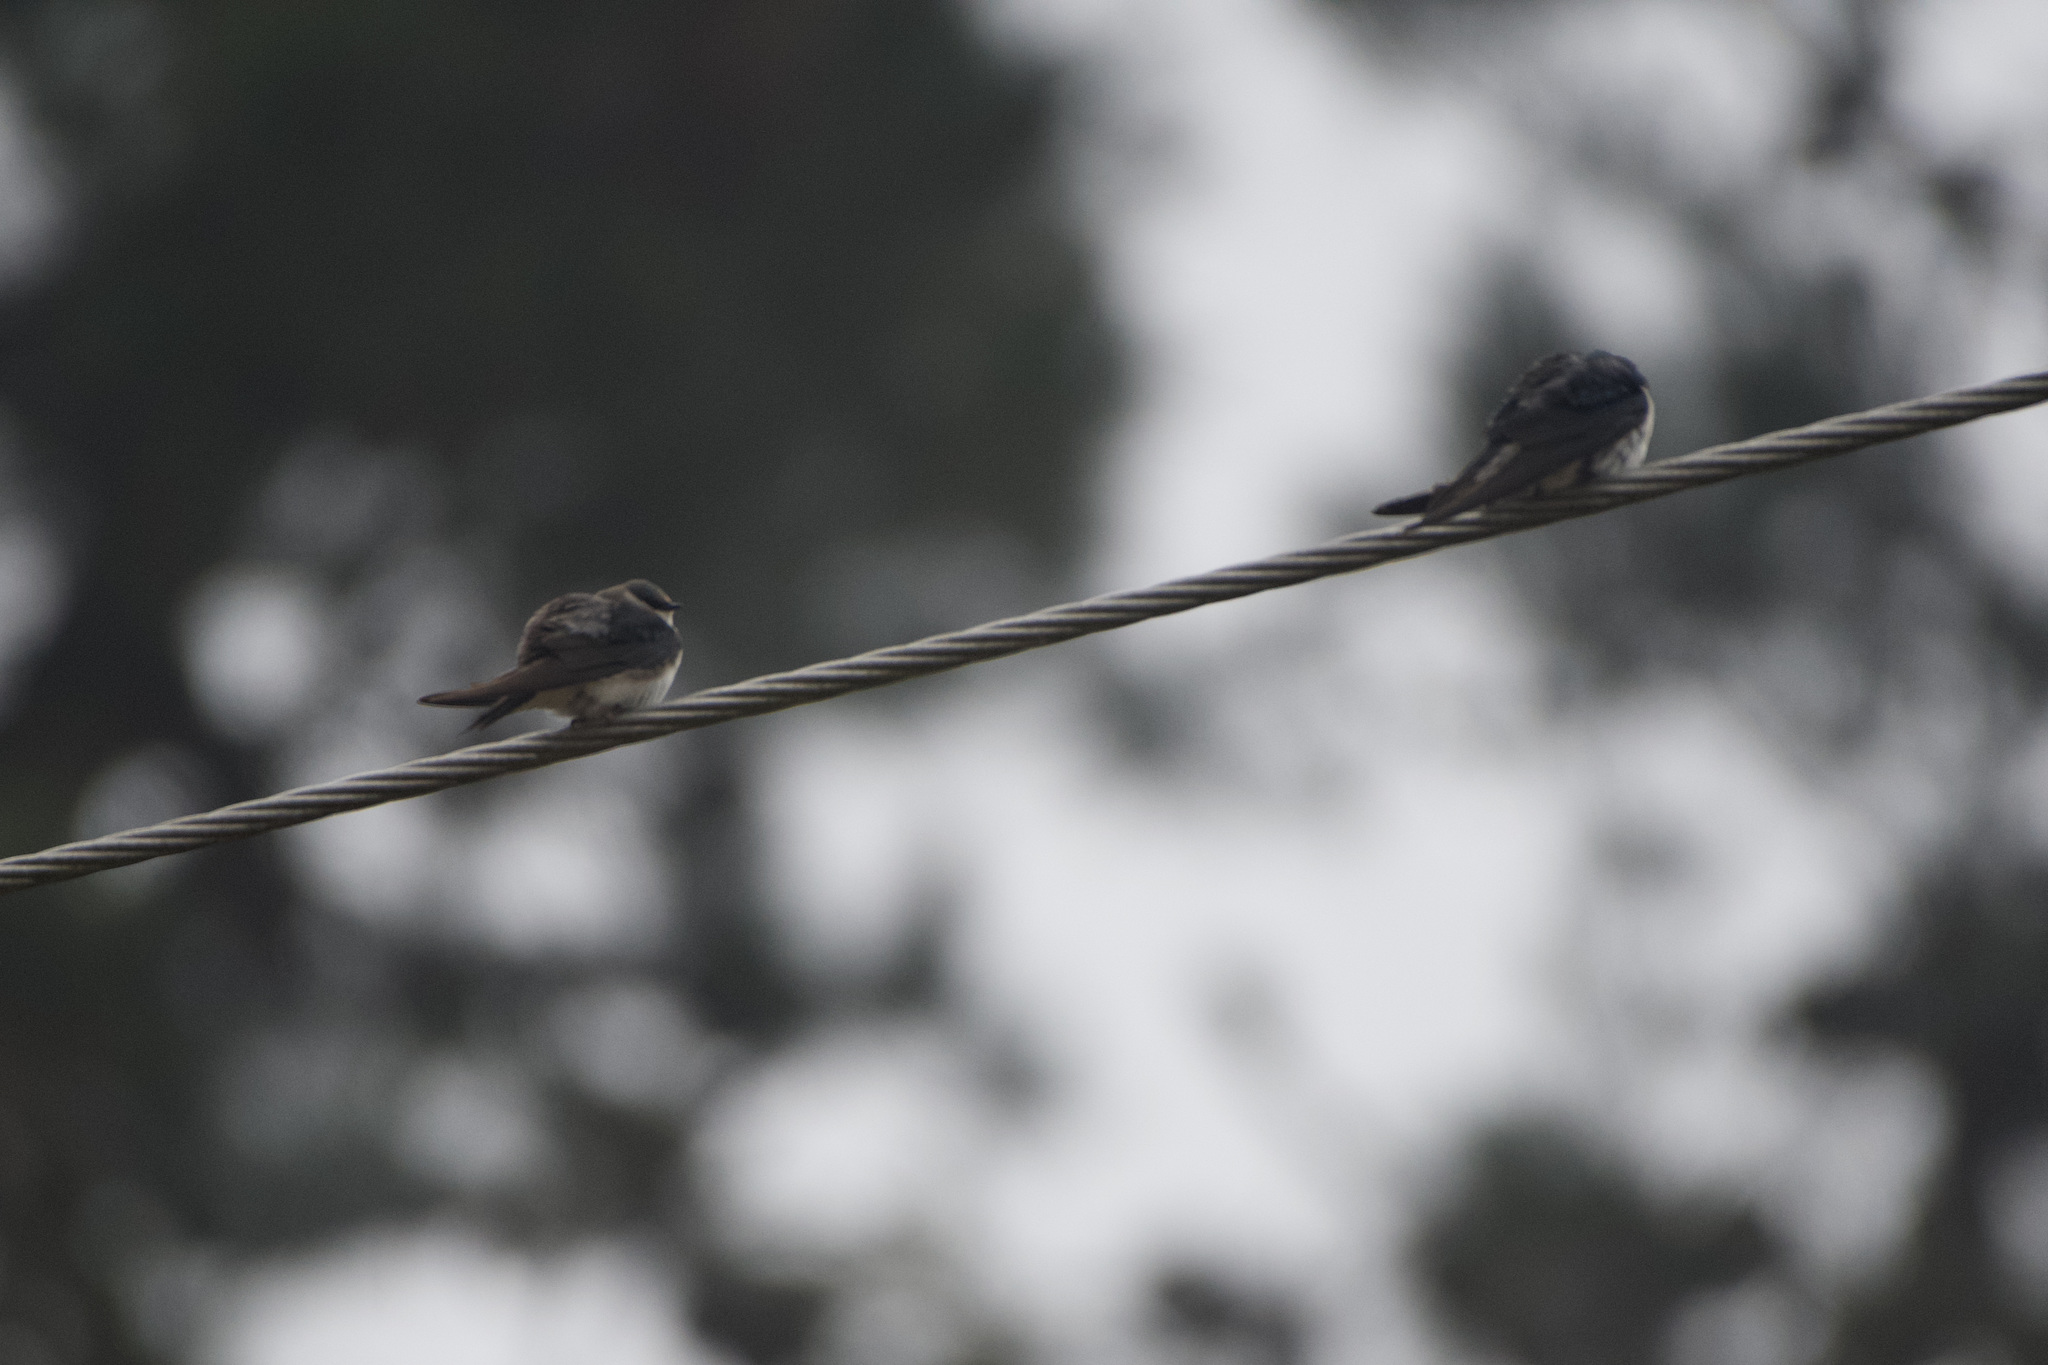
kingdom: Animalia
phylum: Chordata
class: Aves
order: Passeriformes
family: Hirundinidae
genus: Tachycineta
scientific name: Tachycineta bicolor
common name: Tree swallow
